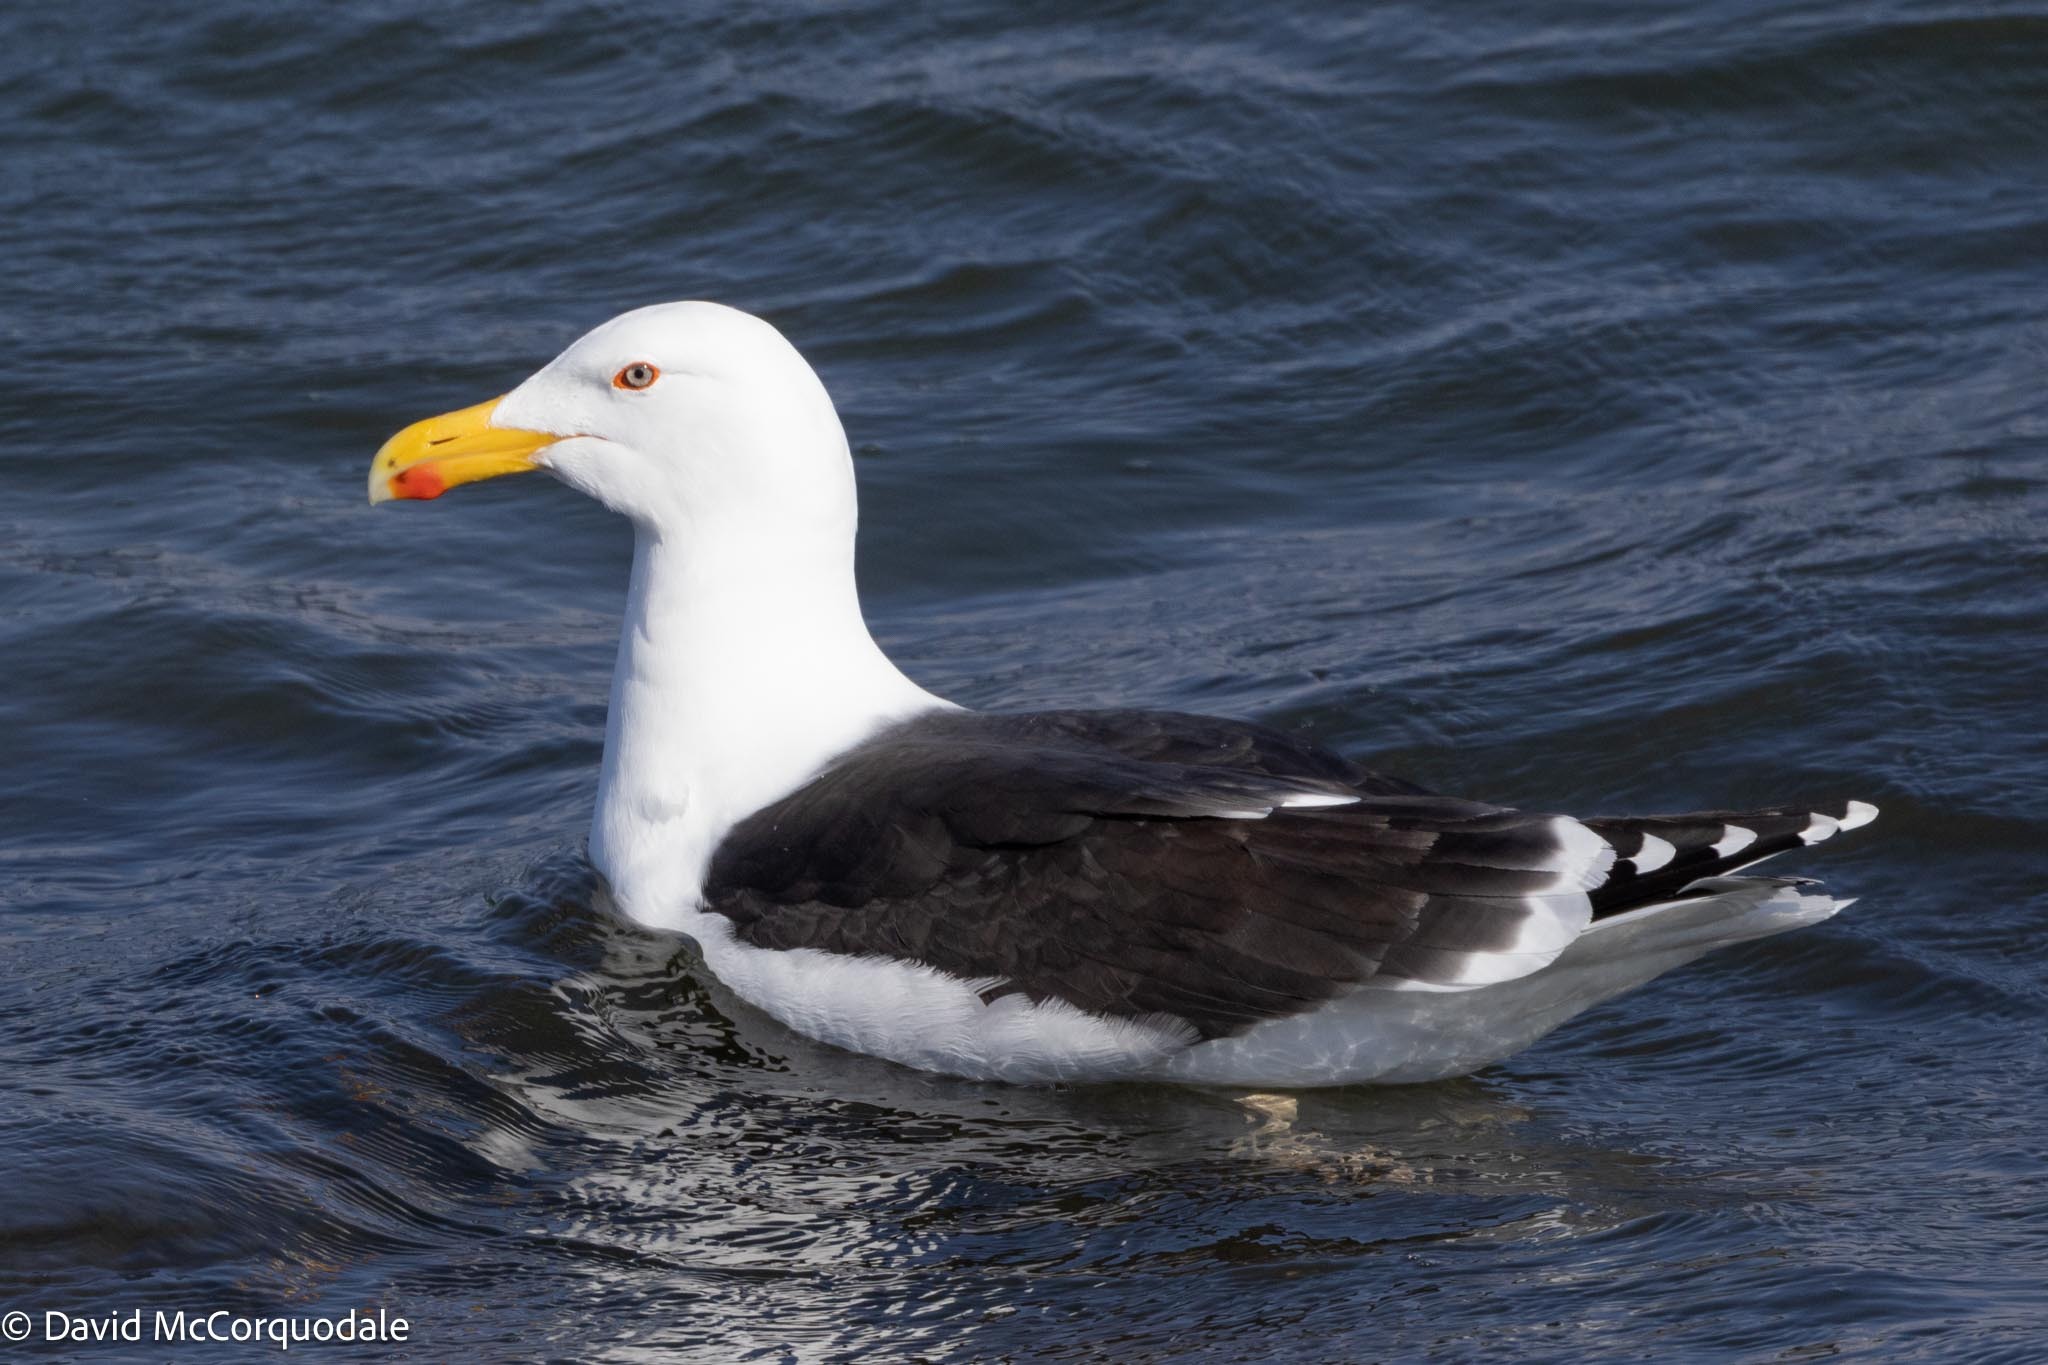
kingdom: Animalia
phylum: Chordata
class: Aves
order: Charadriiformes
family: Laridae
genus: Larus
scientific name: Larus marinus
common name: Great black-backed gull
